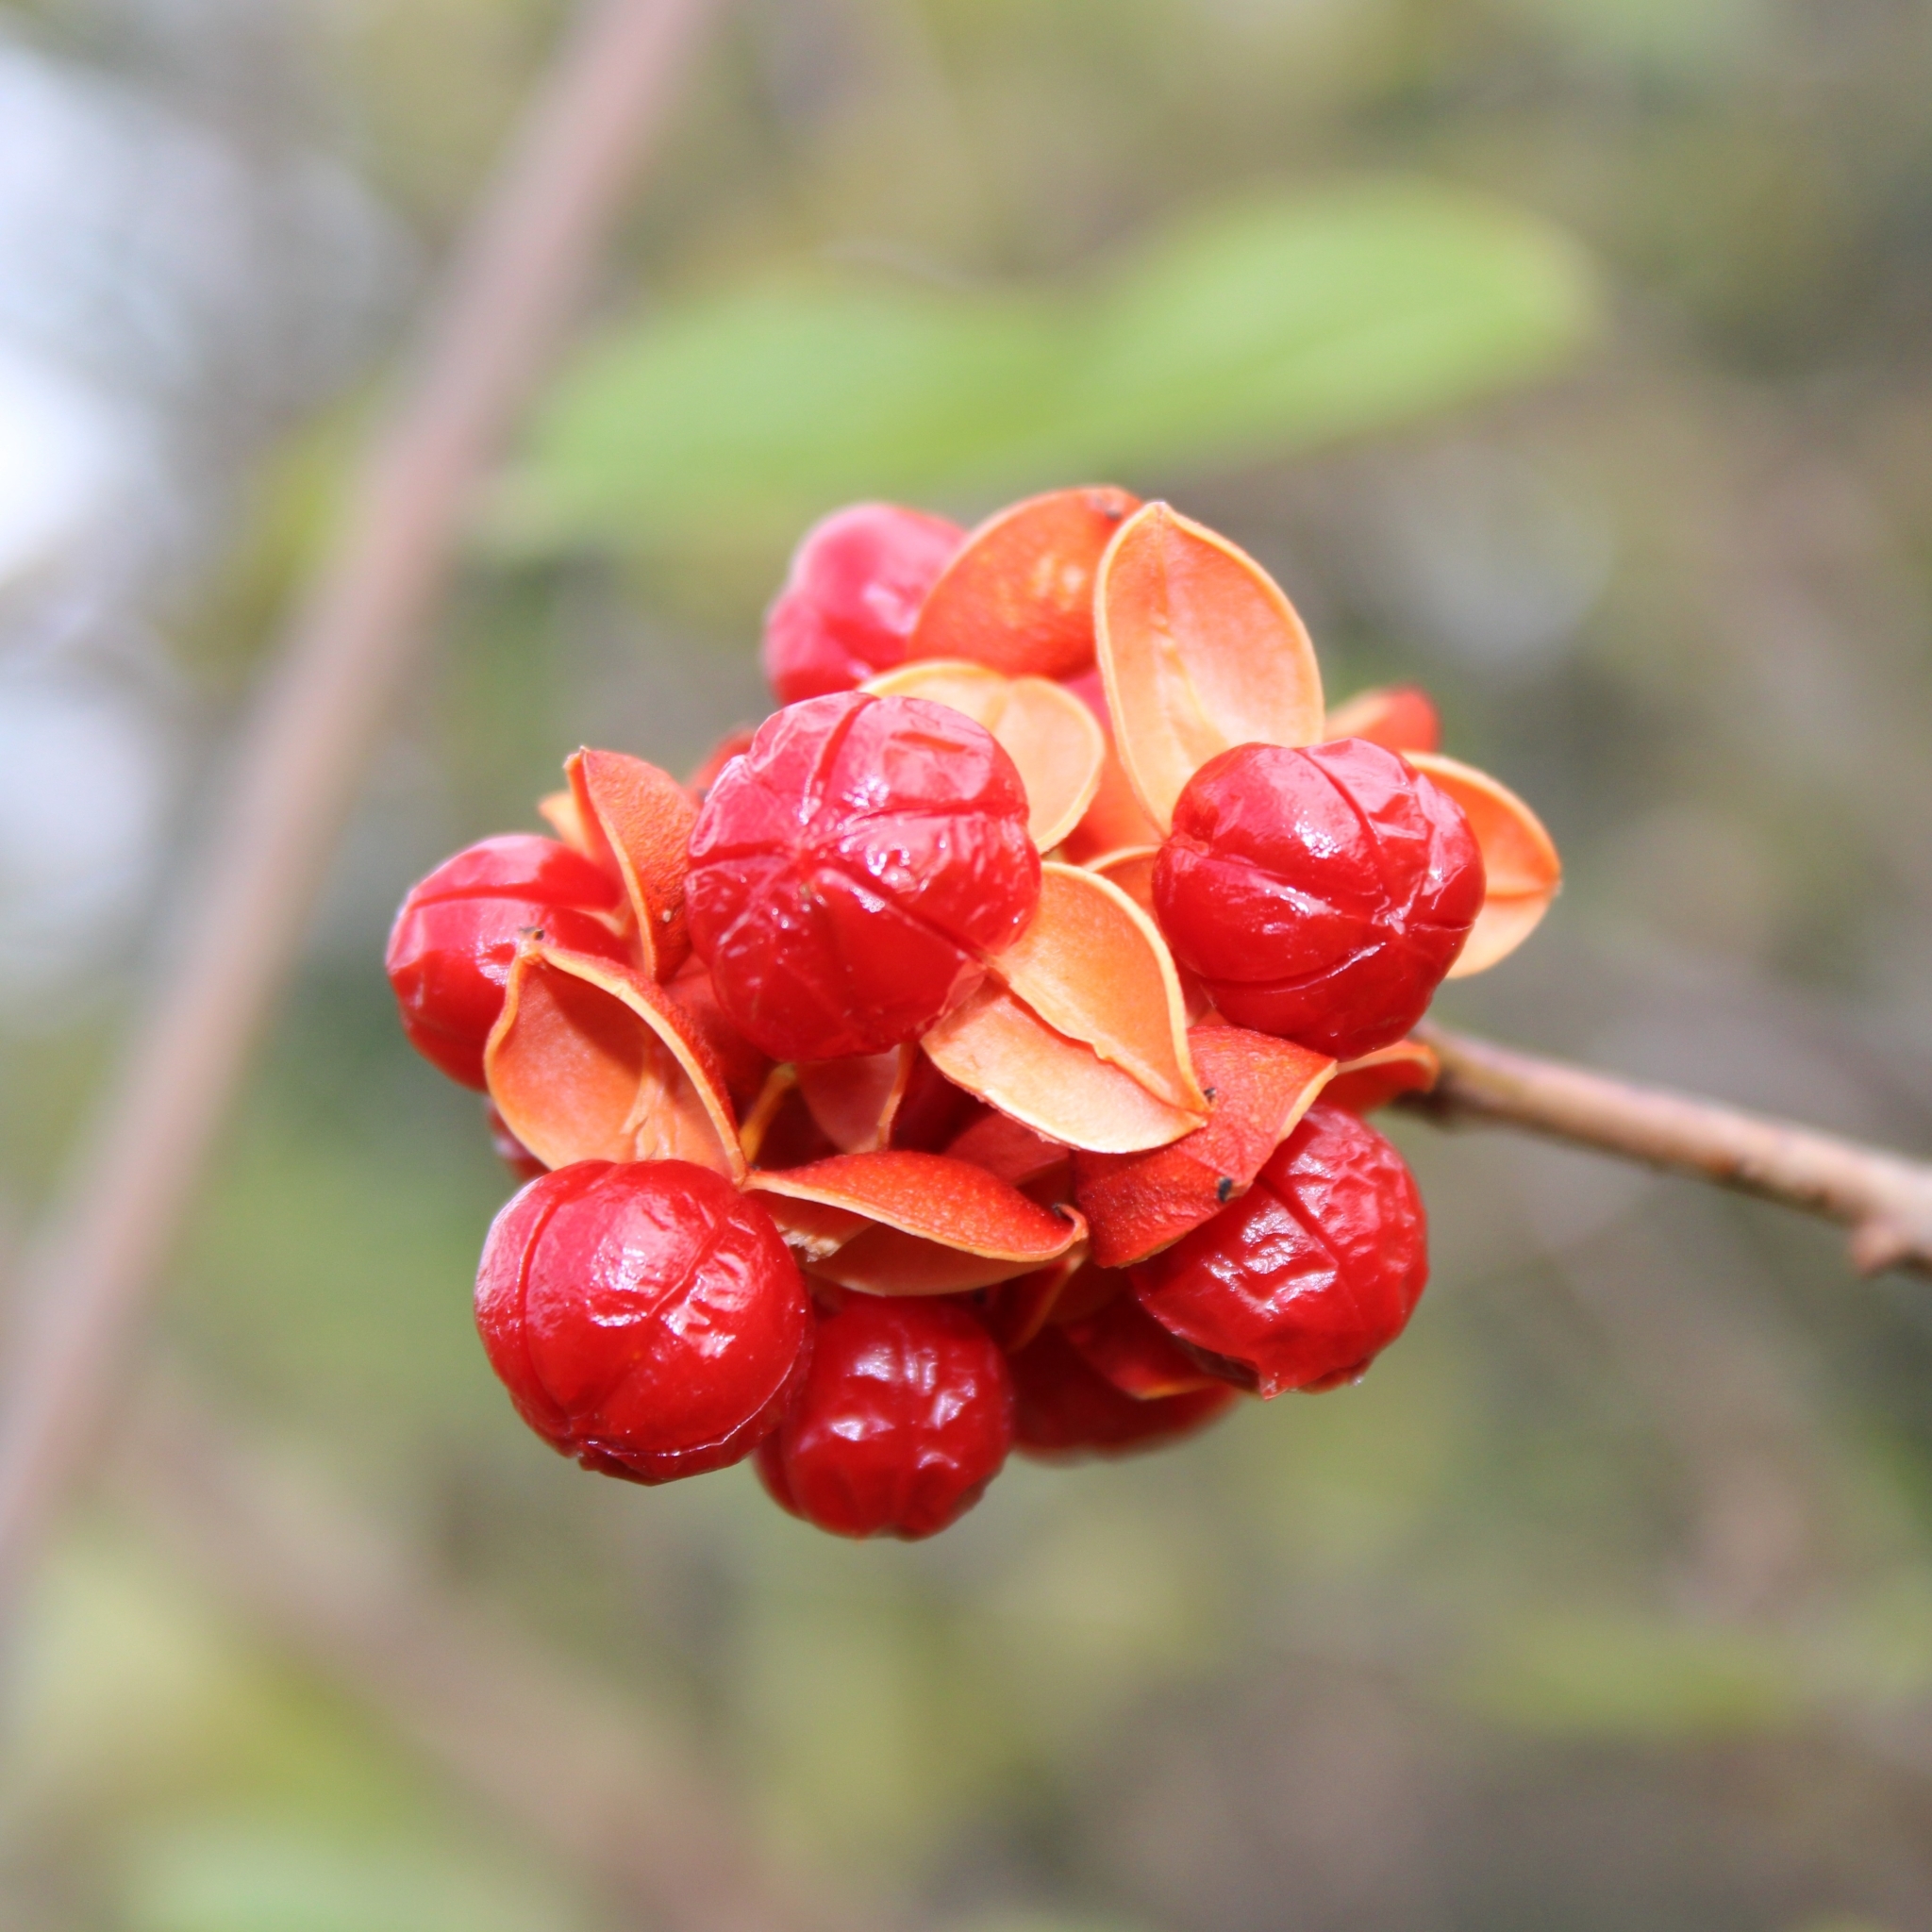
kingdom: Plantae
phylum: Tracheophyta
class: Magnoliopsida
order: Celastrales
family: Celastraceae
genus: Celastrus
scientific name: Celastrus scandens
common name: American bittersweet
